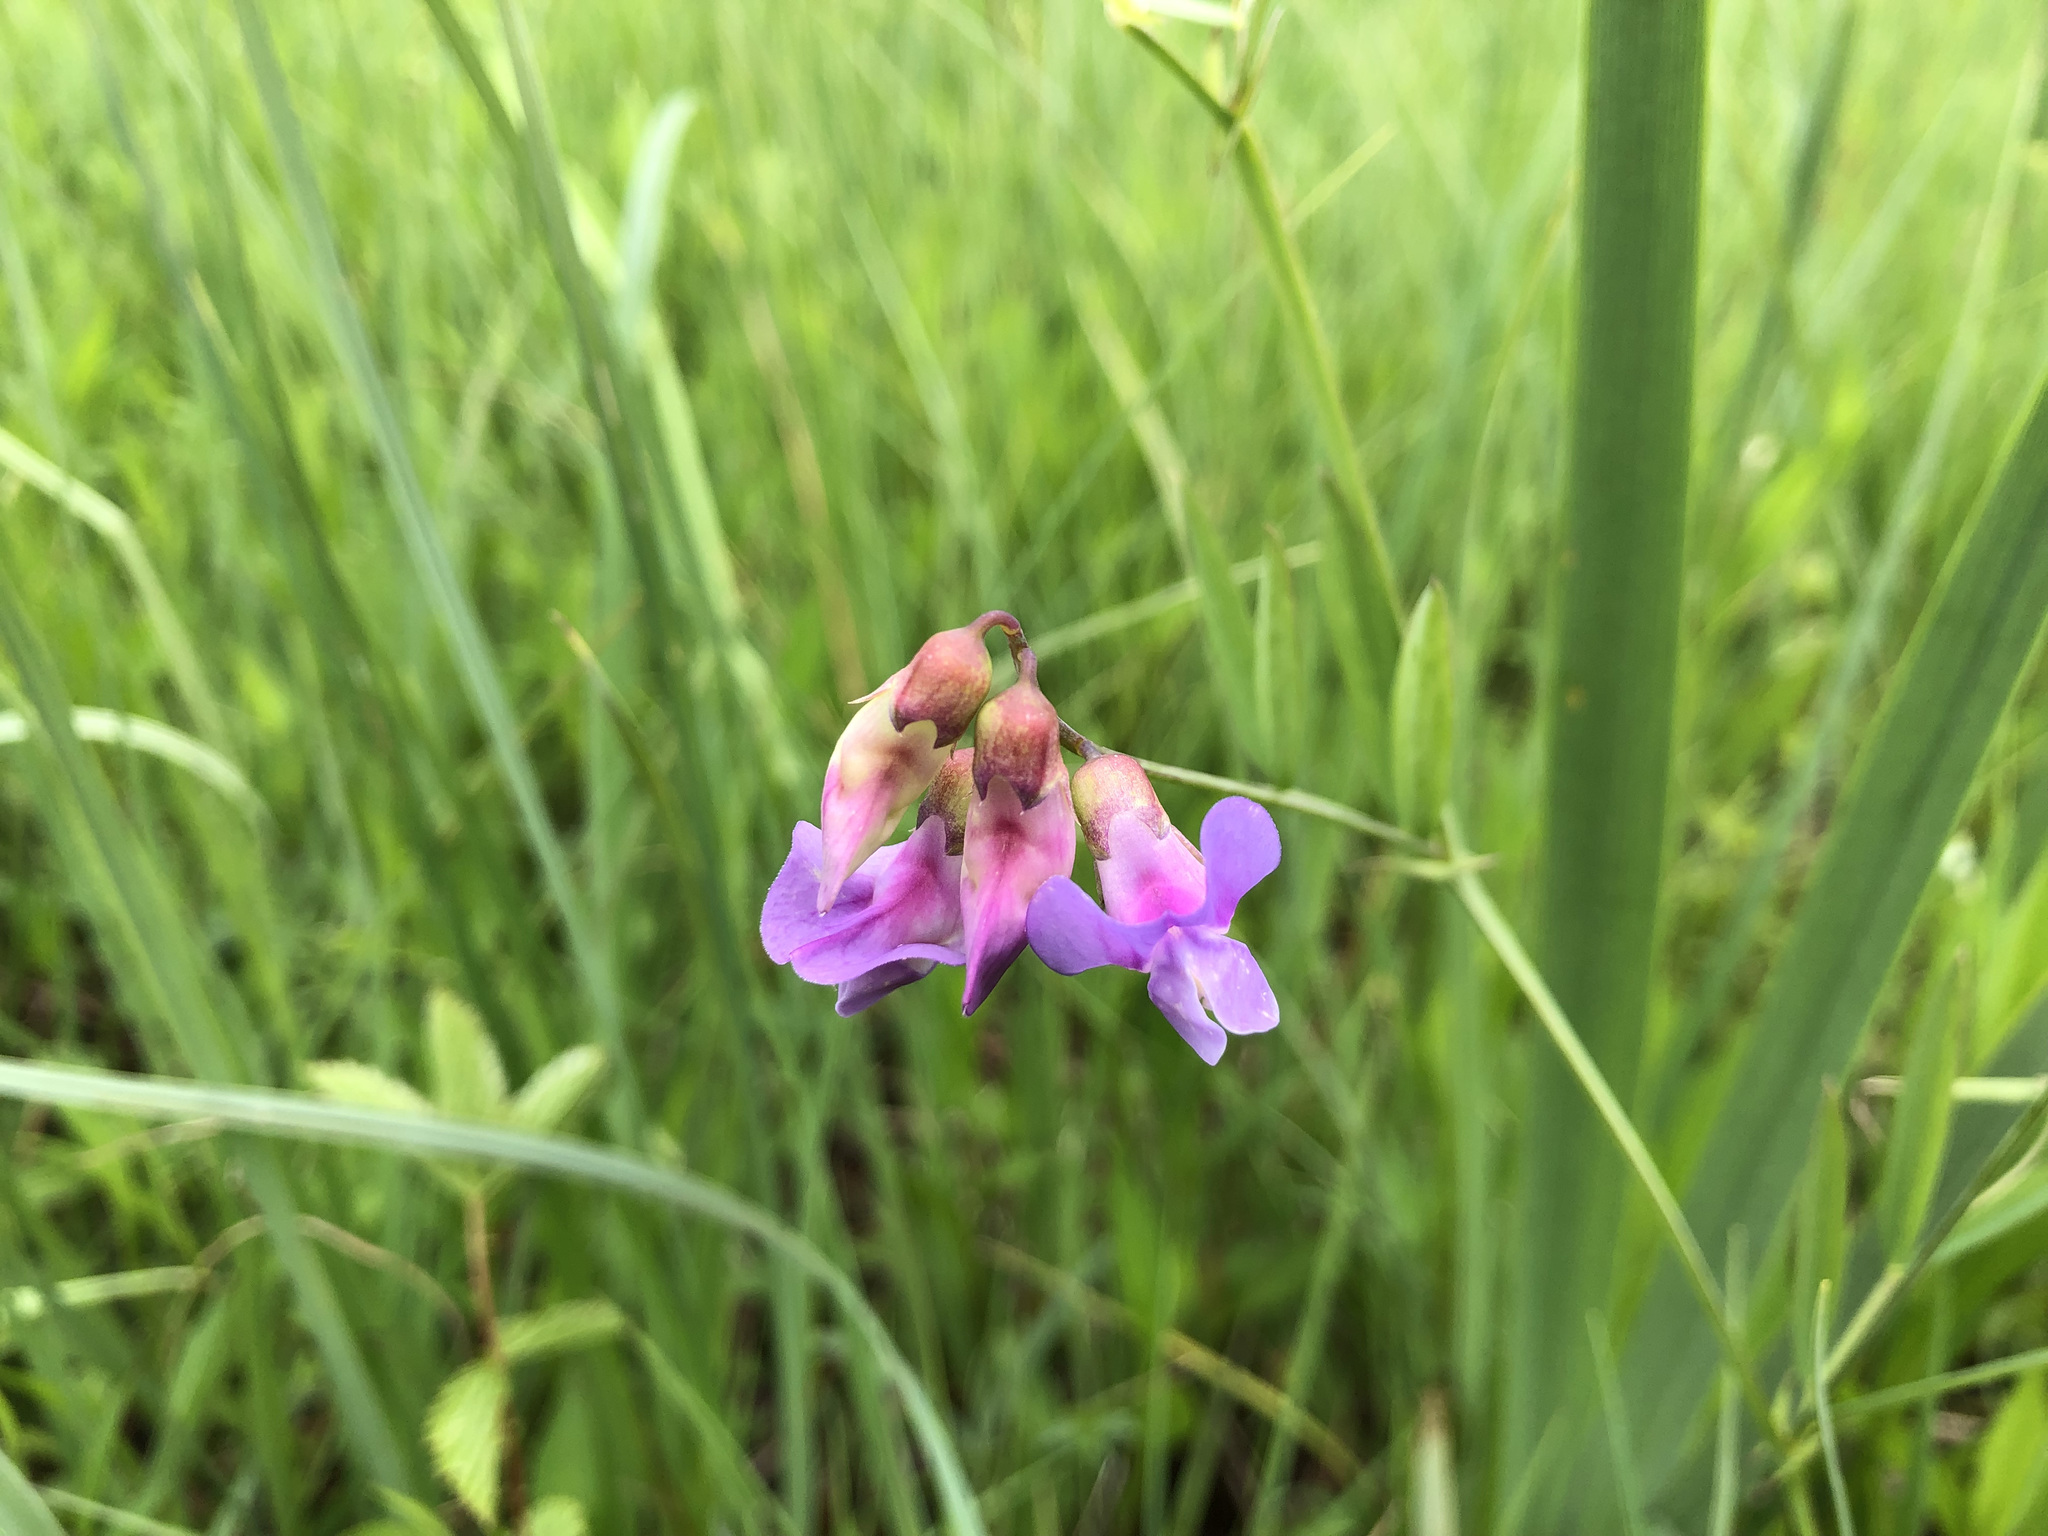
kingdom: Plantae
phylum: Tracheophyta
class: Magnoliopsida
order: Fabales
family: Fabaceae
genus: Lathyrus
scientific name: Lathyrus palustris
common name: Marsh pea
